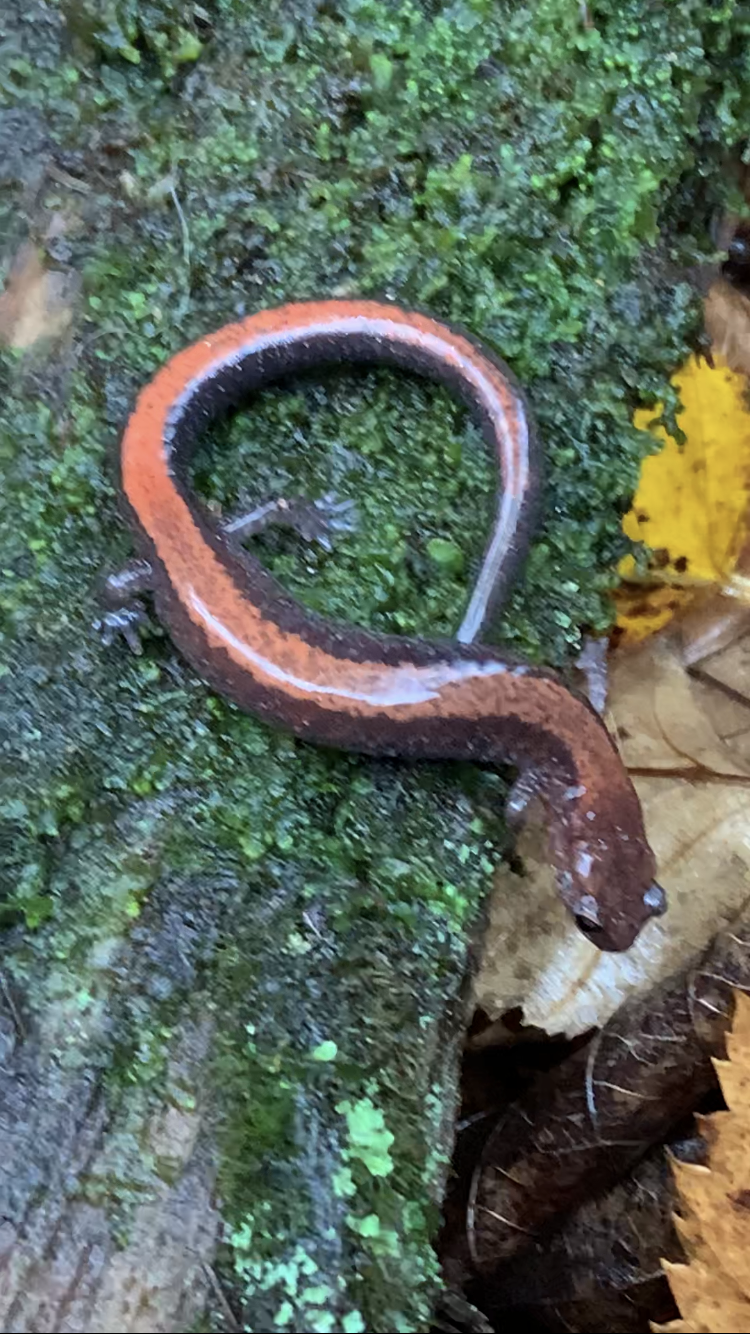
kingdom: Animalia
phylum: Chordata
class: Amphibia
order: Caudata
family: Plethodontidae
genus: Plethodon
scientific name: Plethodon cinereus
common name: Redback salamander
